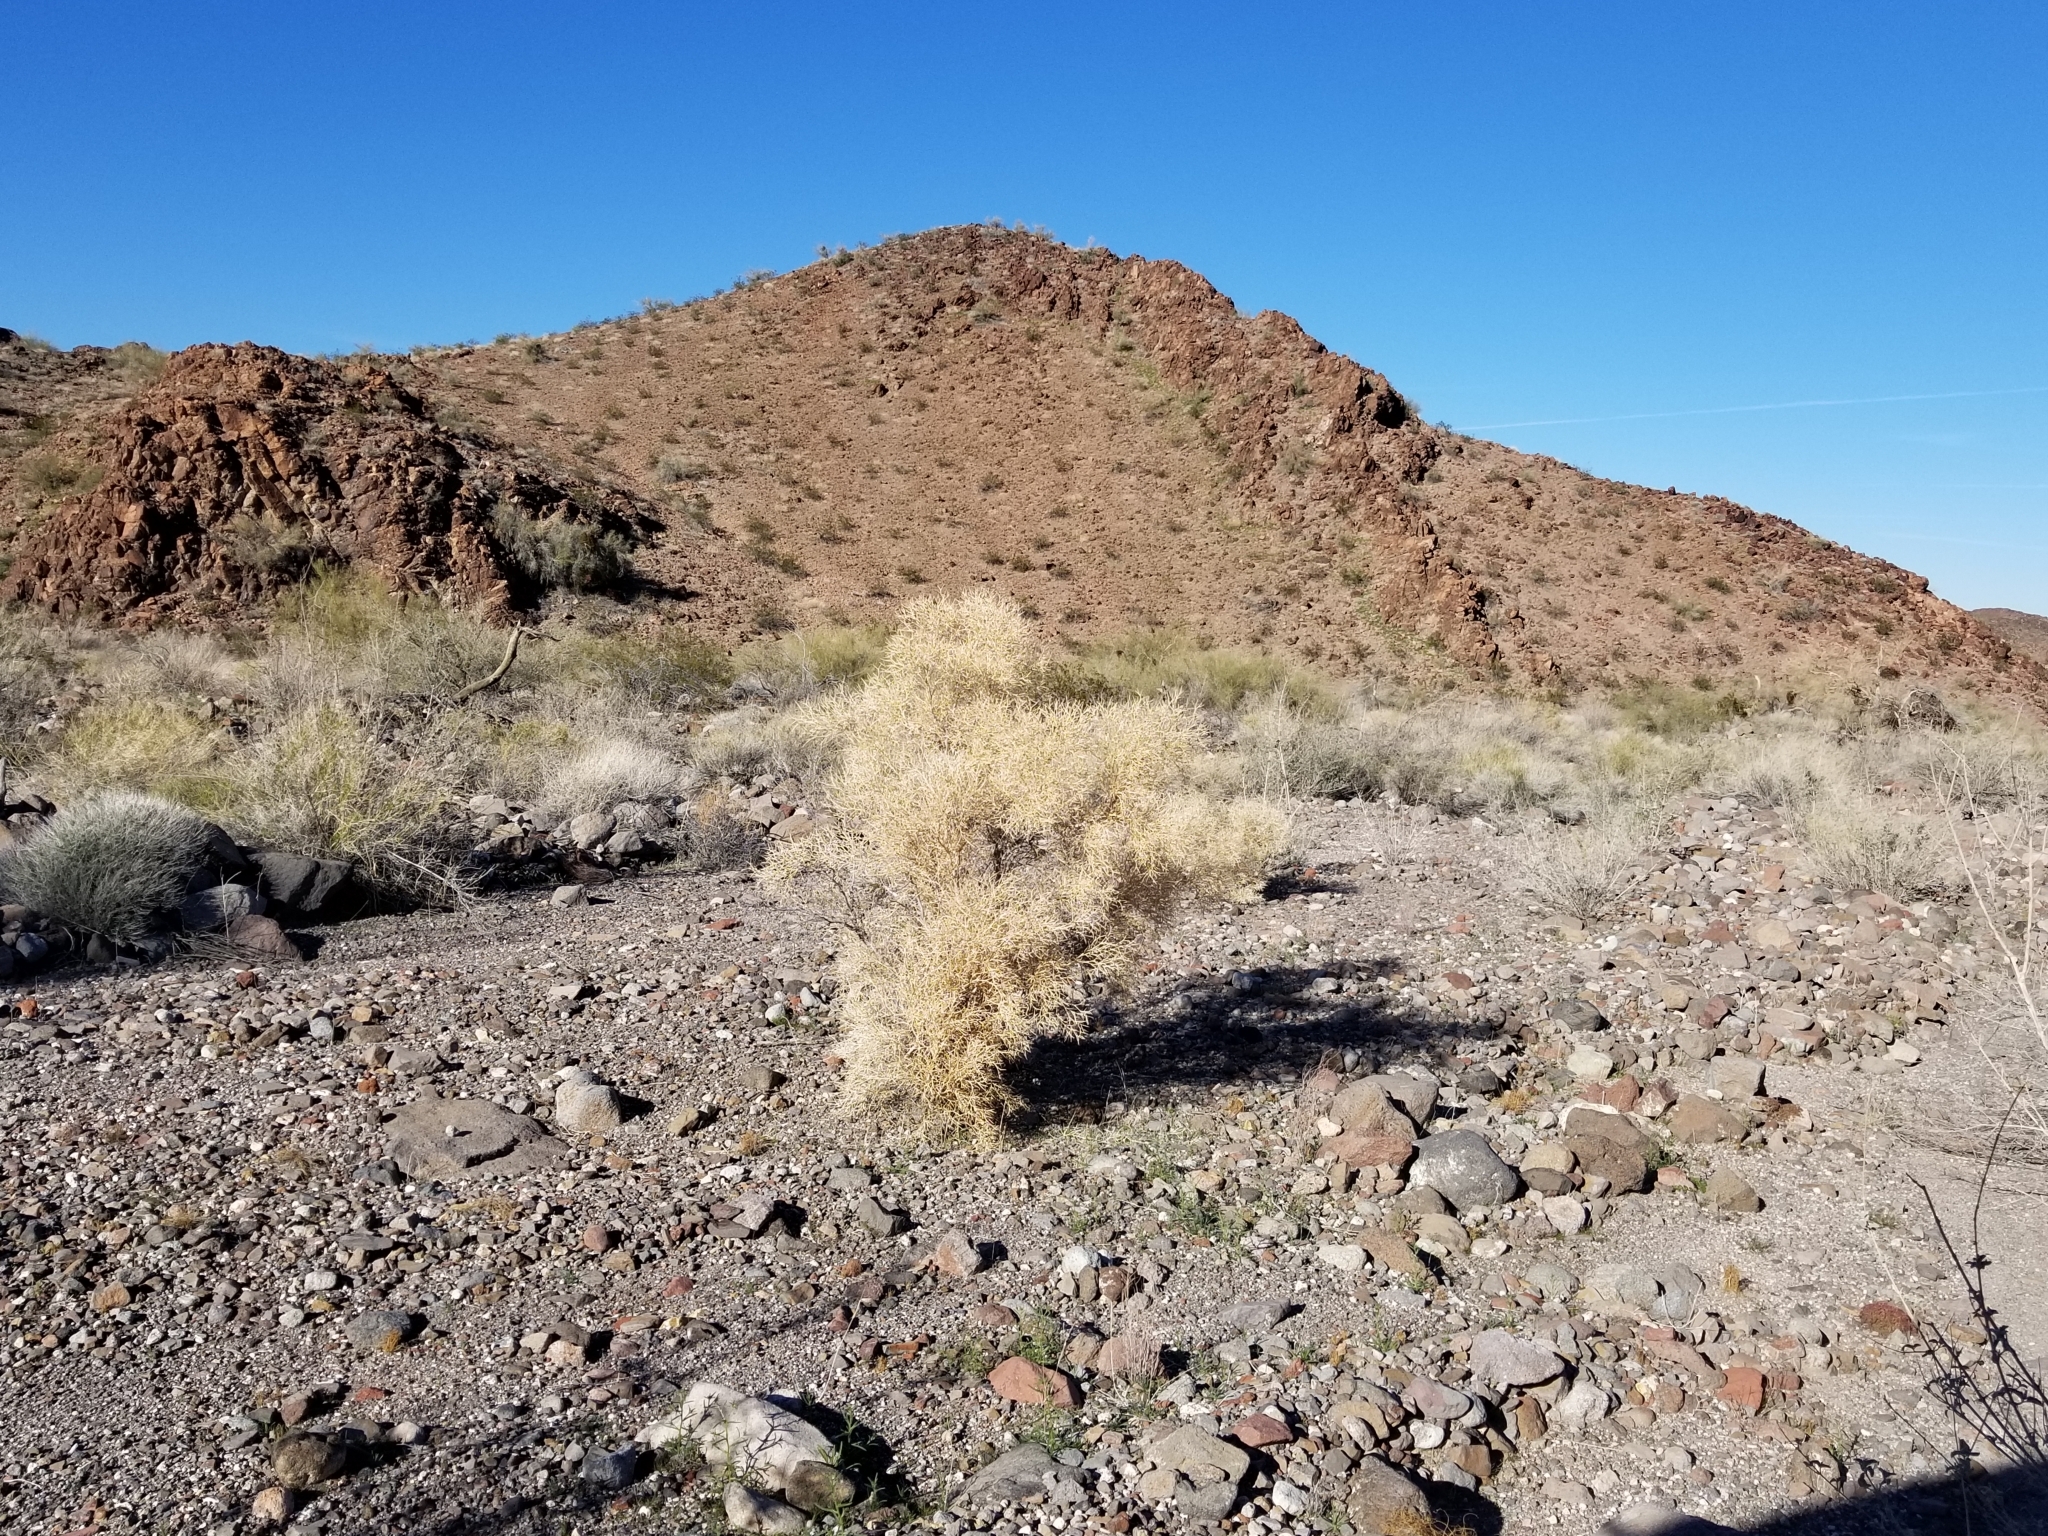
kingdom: Plantae
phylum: Tracheophyta
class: Magnoliopsida
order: Fabales
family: Fabaceae
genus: Psorothamnus
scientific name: Psorothamnus spinosus
